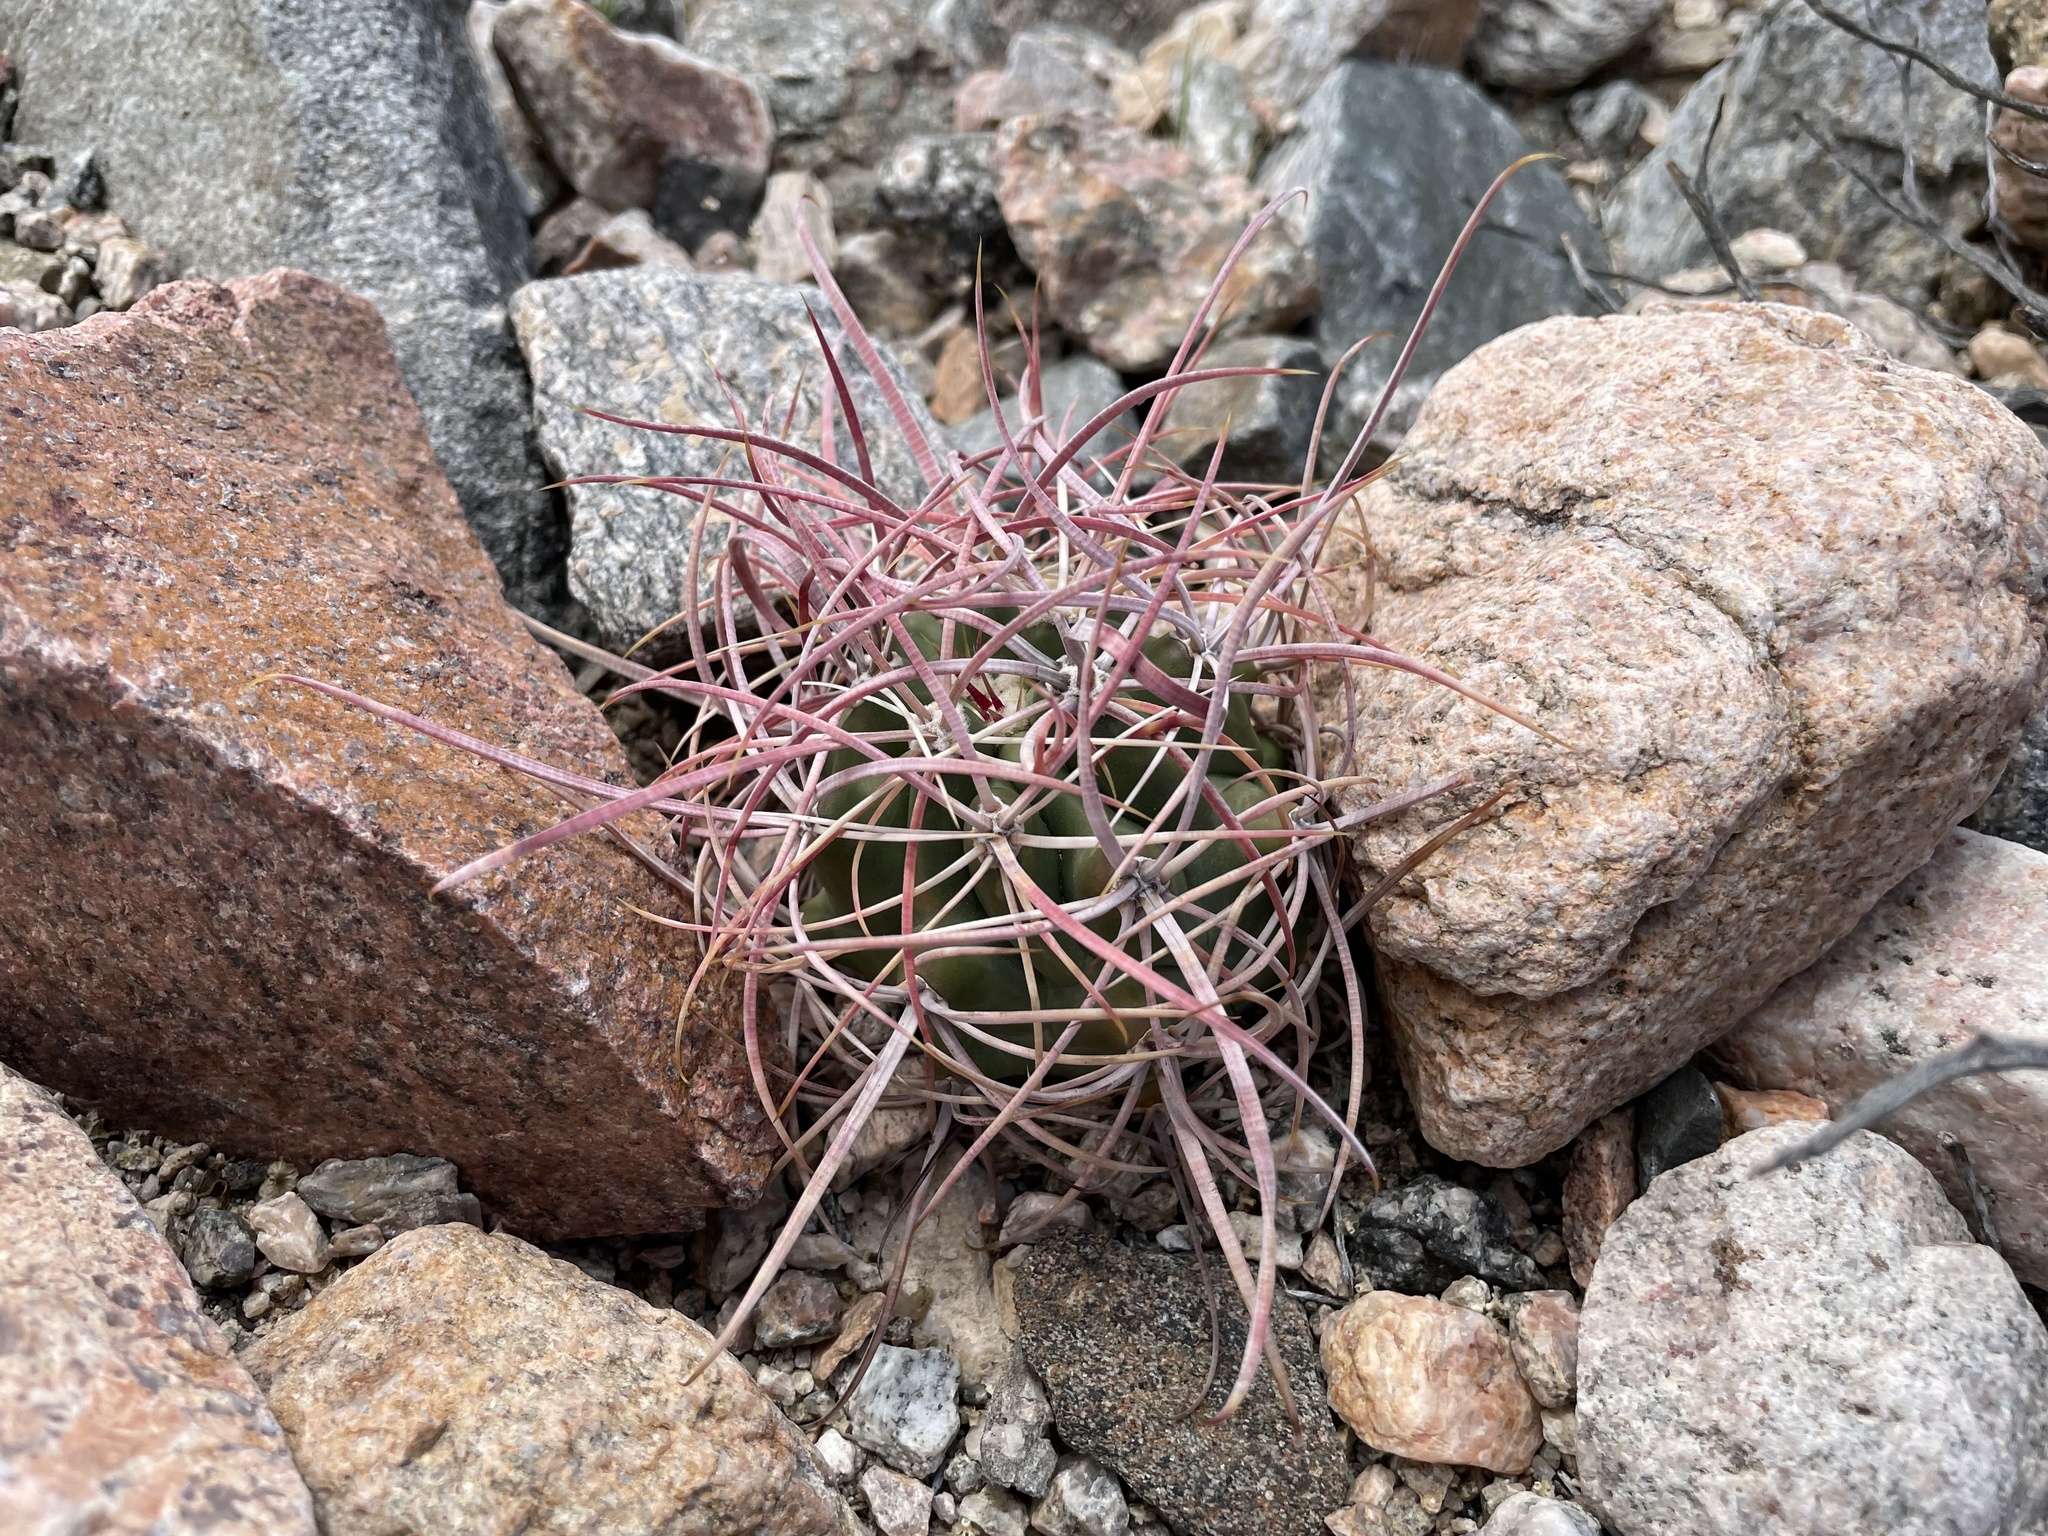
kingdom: Plantae
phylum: Tracheophyta
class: Magnoliopsida
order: Caryophyllales
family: Cactaceae
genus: Ferocactus
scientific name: Ferocactus cylindraceus
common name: California barrel cactus
